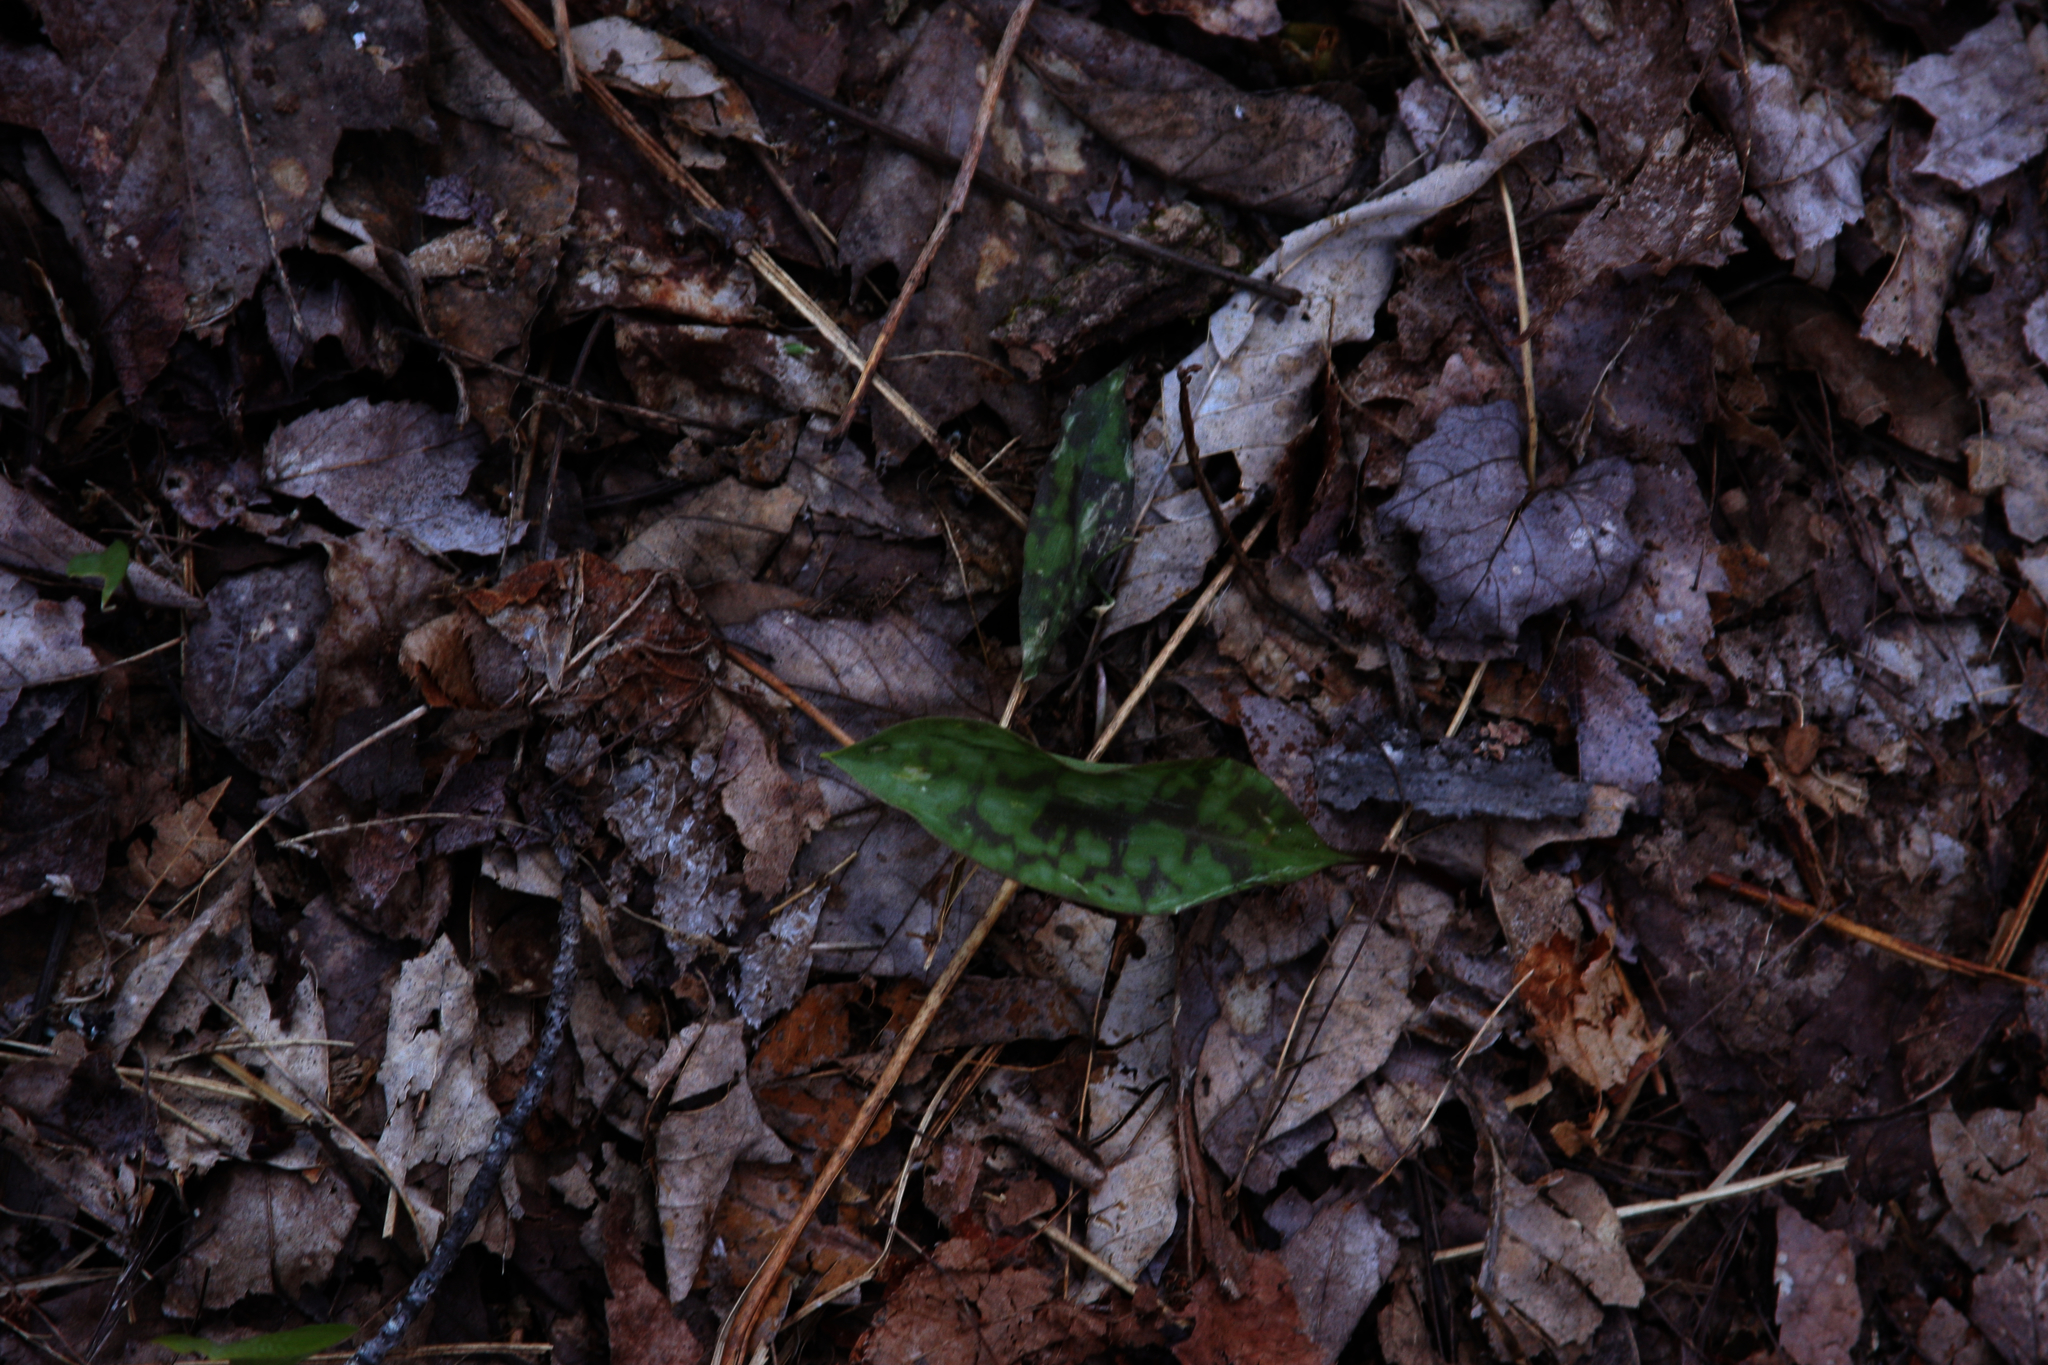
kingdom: Plantae
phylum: Tracheophyta
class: Liliopsida
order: Liliales
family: Liliaceae
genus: Erythronium
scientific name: Erythronium americanum
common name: Yellow adder's-tongue
